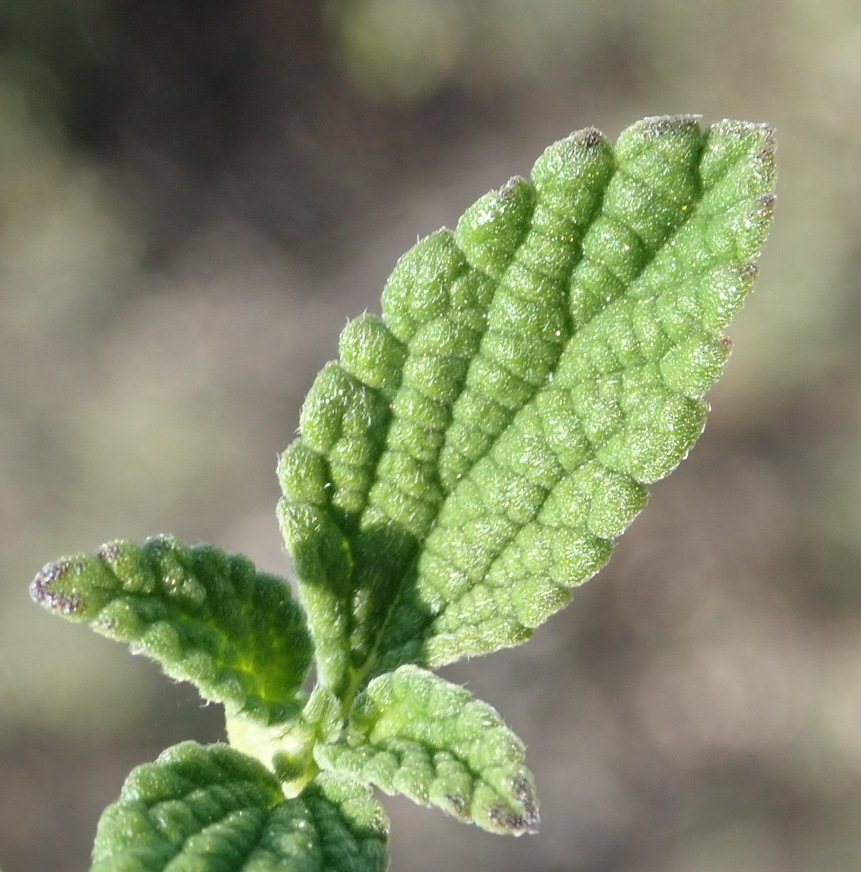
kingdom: Plantae
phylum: Tracheophyta
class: Magnoliopsida
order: Lamiales
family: Verbenaceae
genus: Lantana
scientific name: Lantana rugosa
